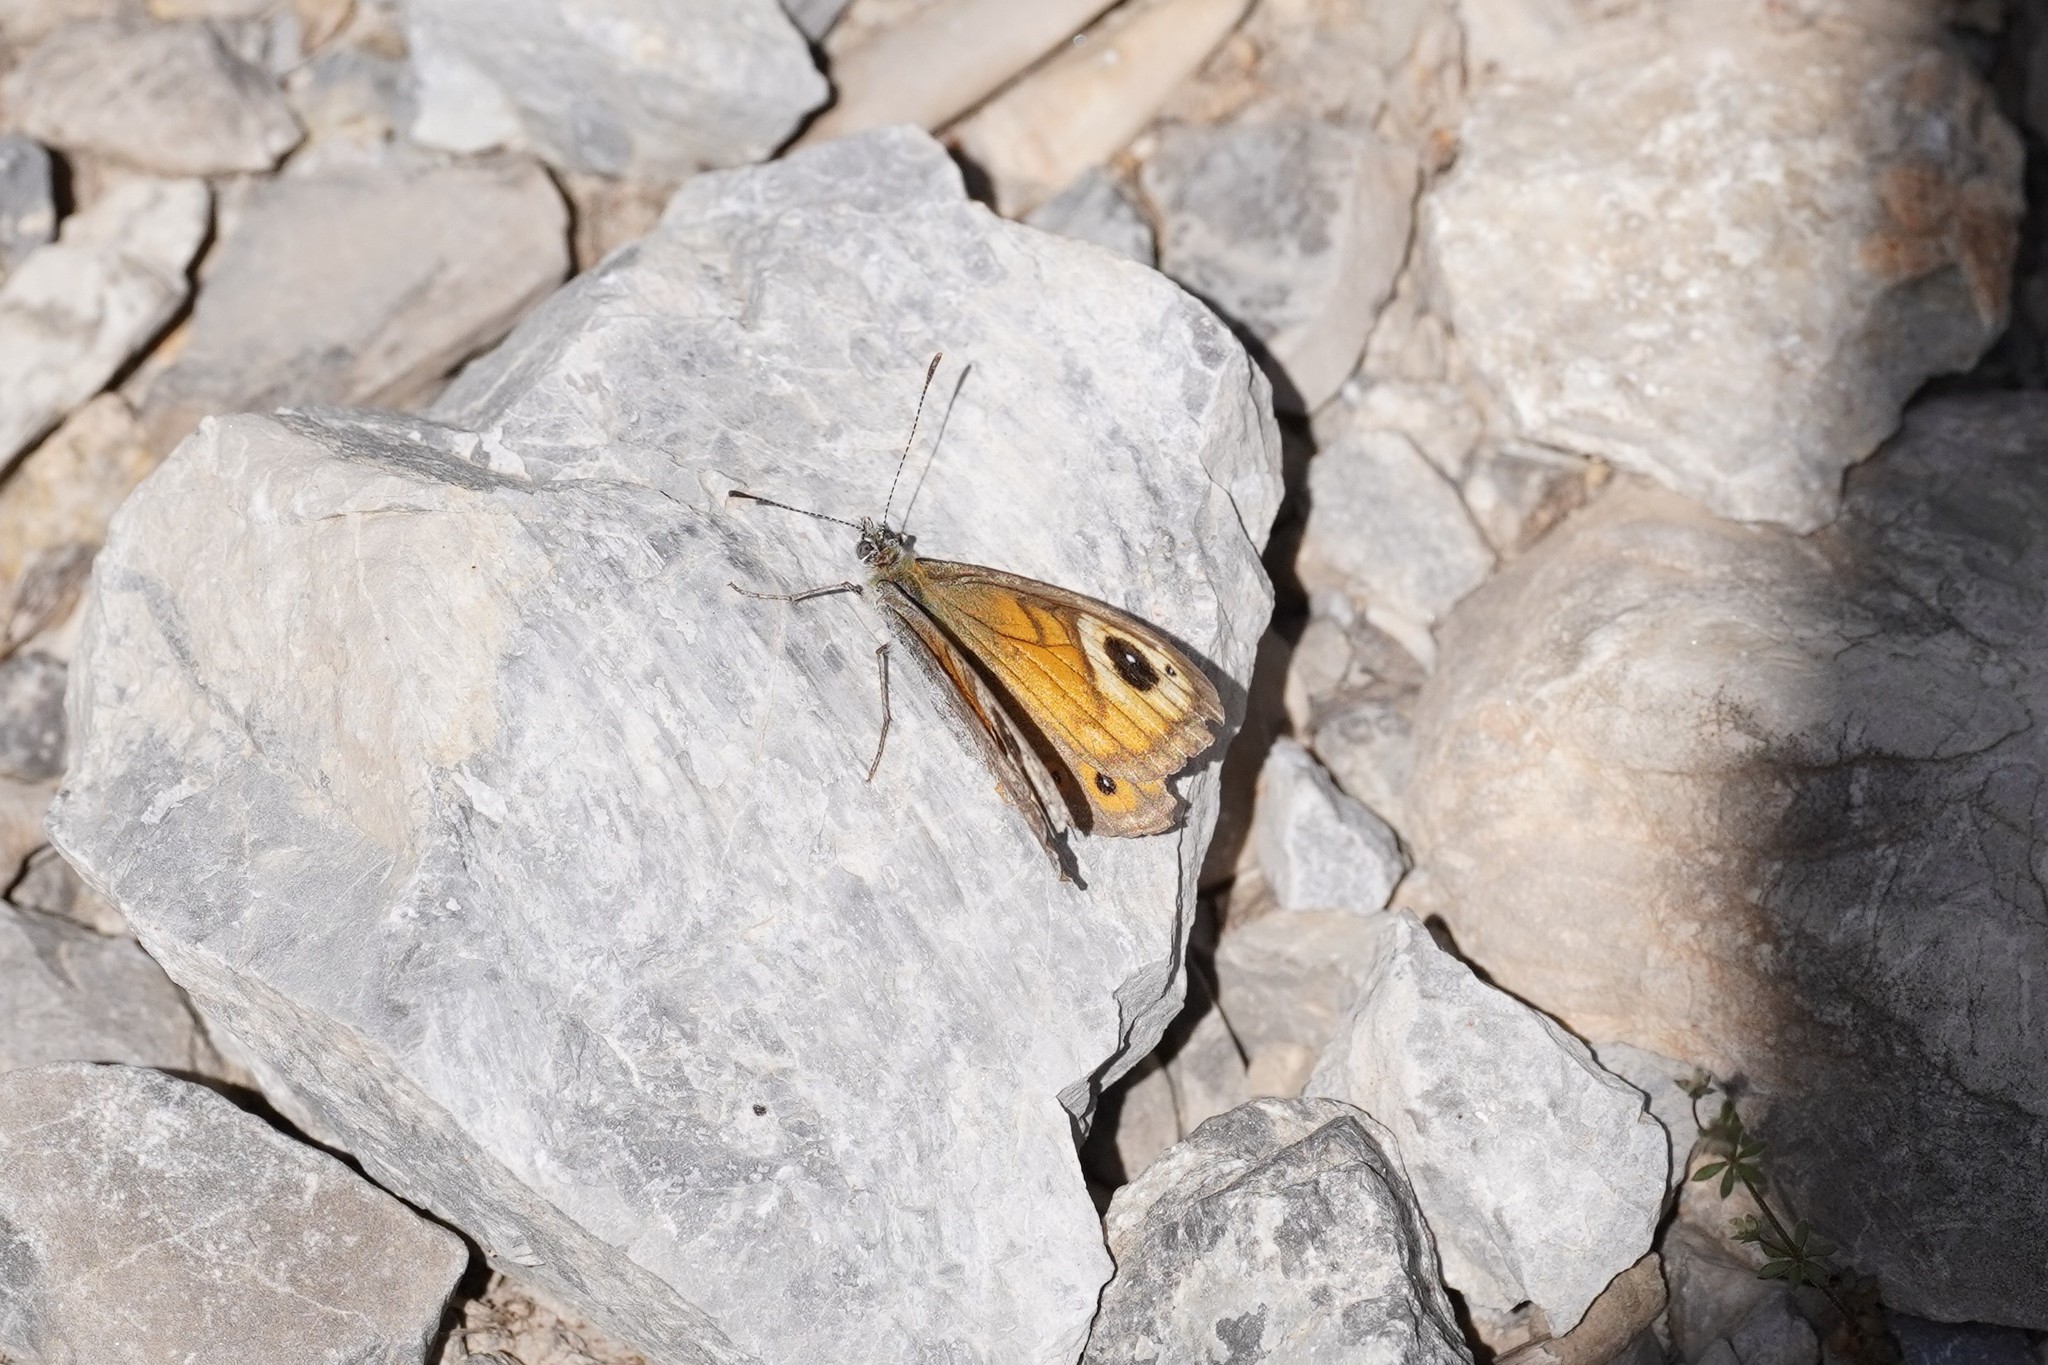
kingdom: Animalia
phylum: Arthropoda
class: Insecta
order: Lepidoptera
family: Nymphalidae
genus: Pararge
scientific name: Pararge Lasiommata maera
